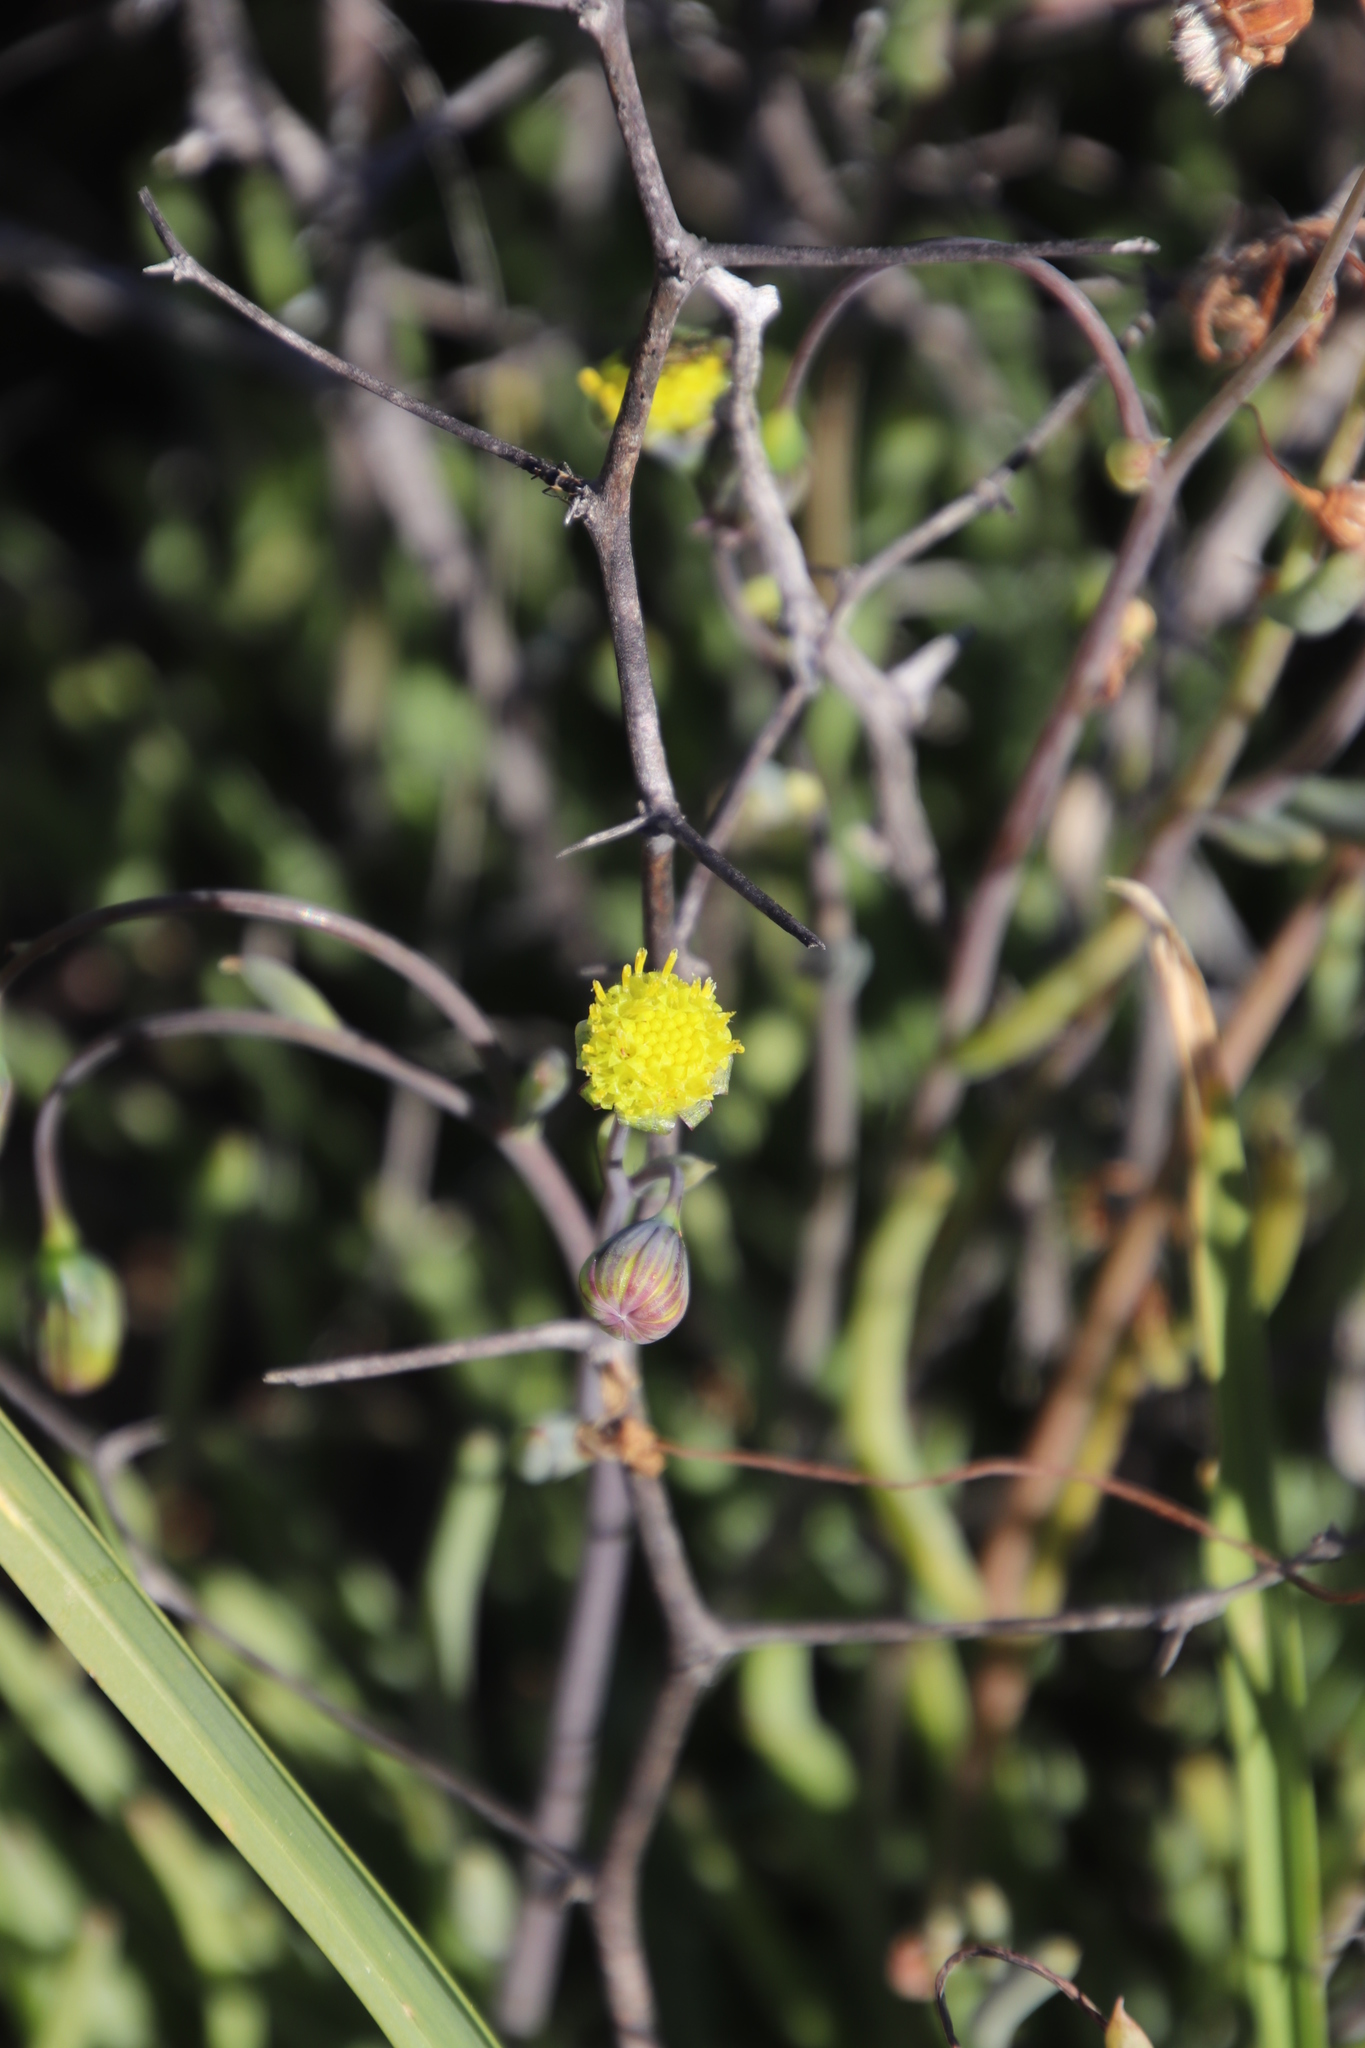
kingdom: Plantae
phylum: Tracheophyta
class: Magnoliopsida
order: Asterales
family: Asteraceae
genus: Crassothonna
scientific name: Crassothonna rechingeri
